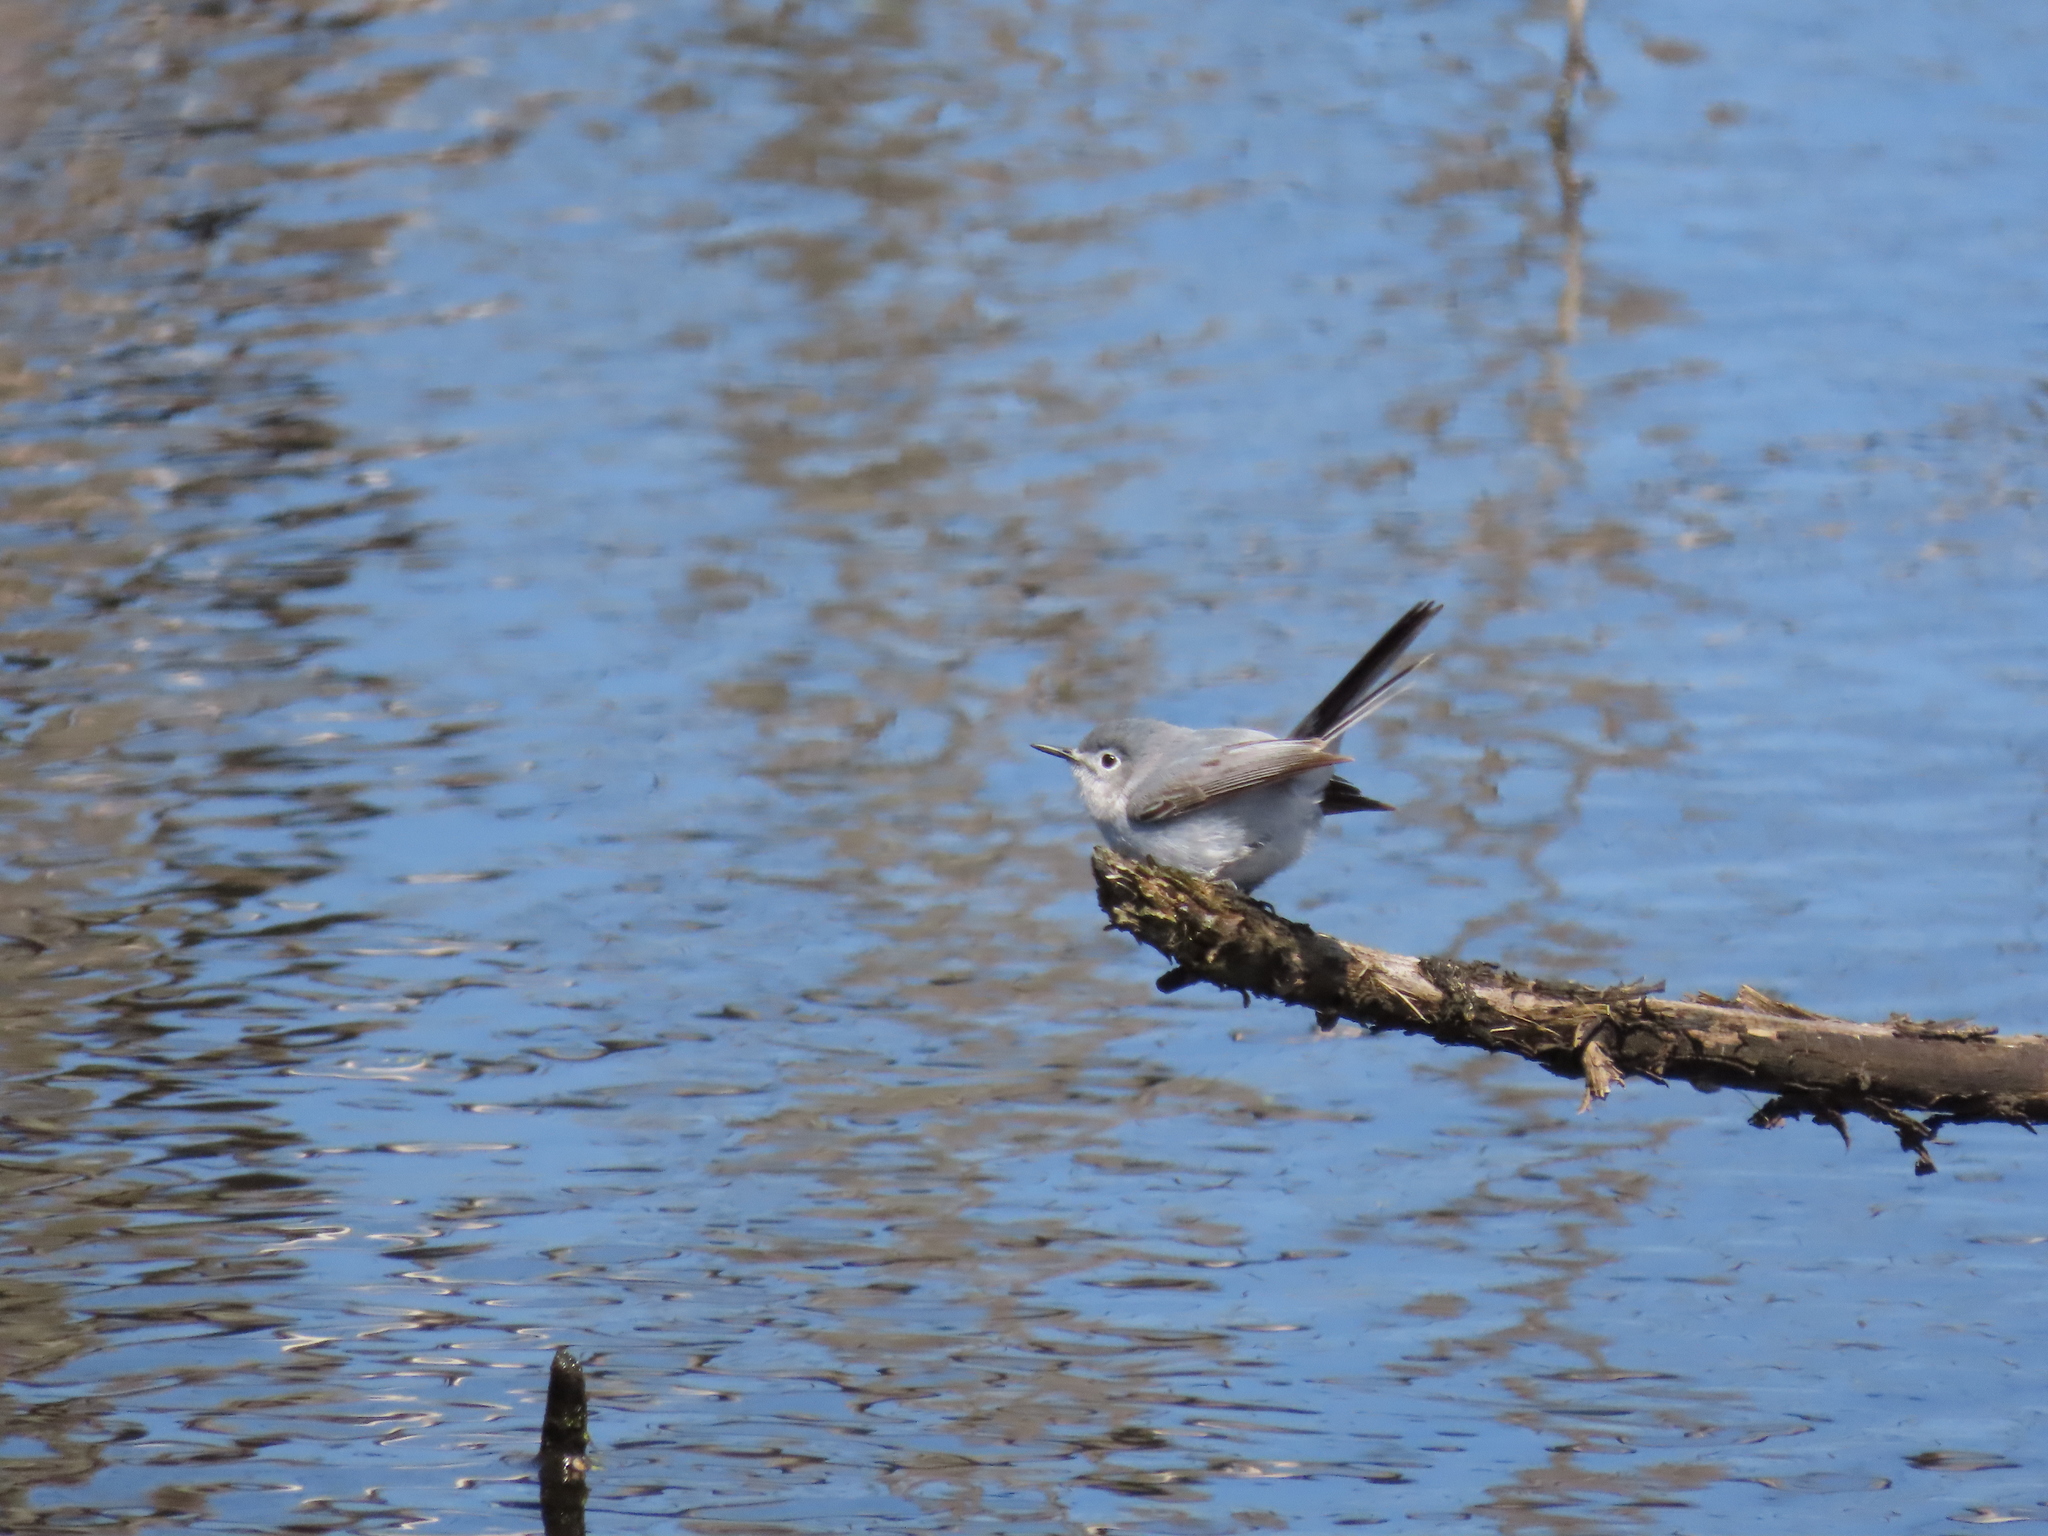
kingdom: Animalia
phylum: Chordata
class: Aves
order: Passeriformes
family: Polioptilidae
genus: Polioptila
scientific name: Polioptila caerulea
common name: Blue-gray gnatcatcher
